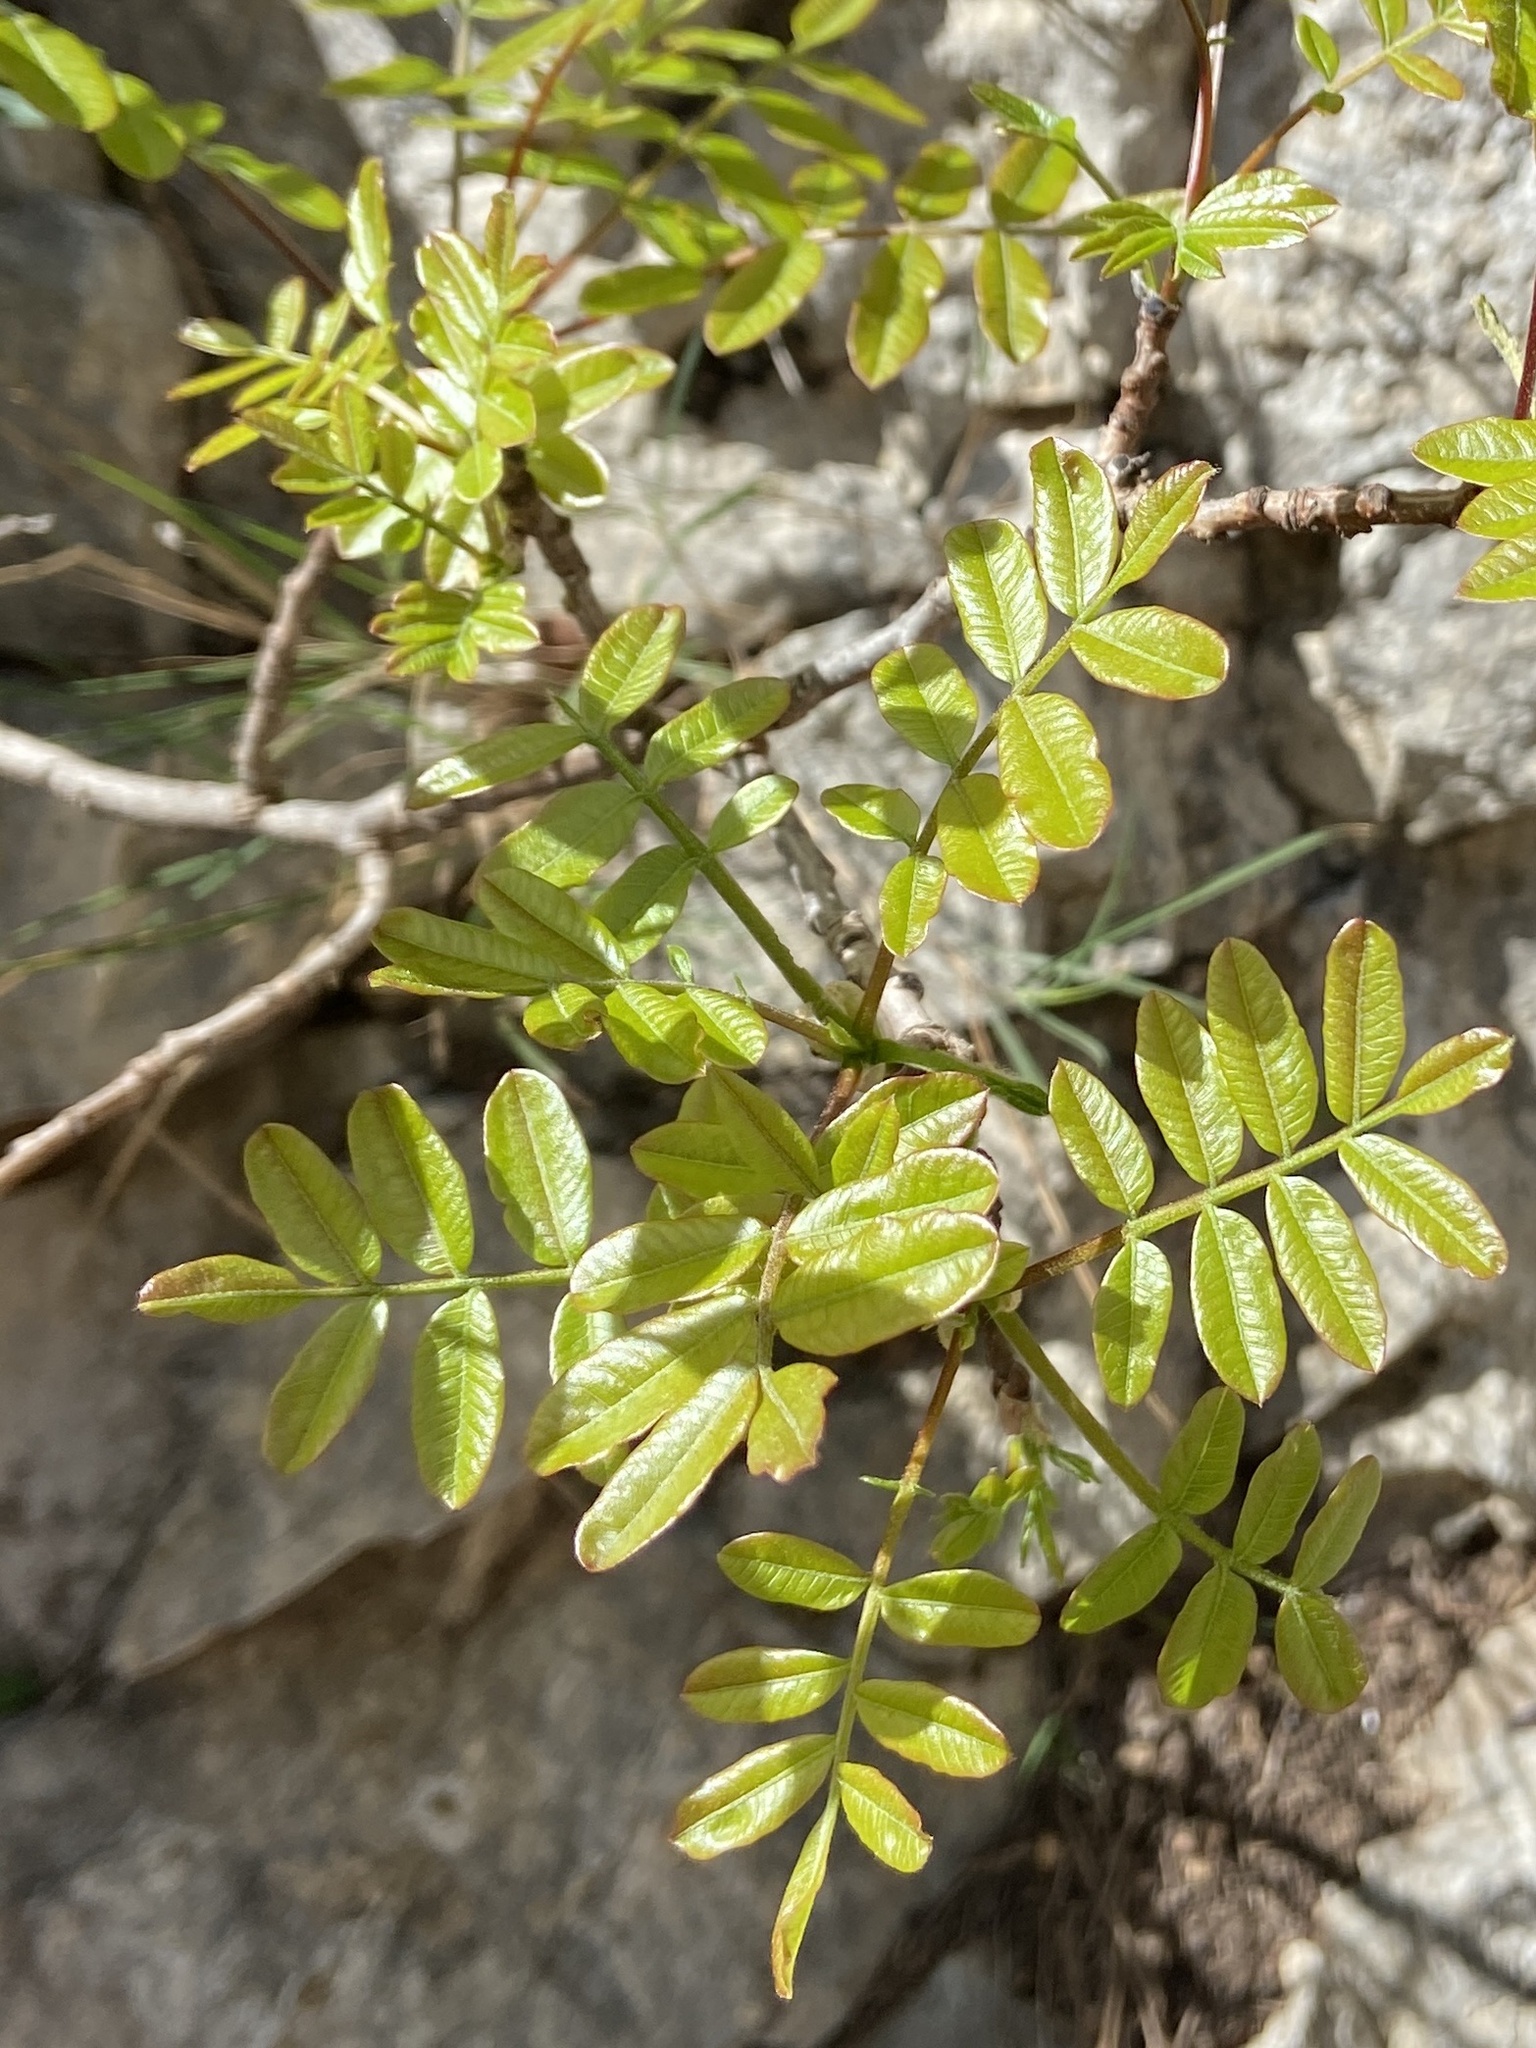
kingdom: Plantae
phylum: Tracheophyta
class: Magnoliopsida
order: Sapindales
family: Anacardiaceae
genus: Pistacia
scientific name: Pistacia terebinthus
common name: Terebinth
